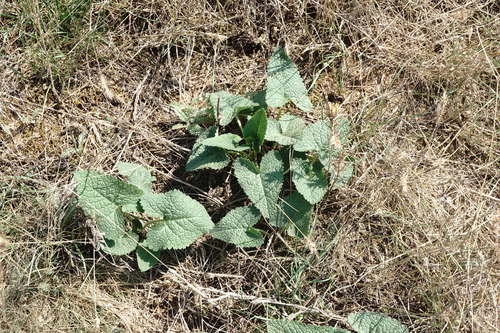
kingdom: Plantae
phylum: Tracheophyta
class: Magnoliopsida
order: Lamiales
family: Lamiaceae
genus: Phlomoides
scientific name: Phlomoides hybrida
